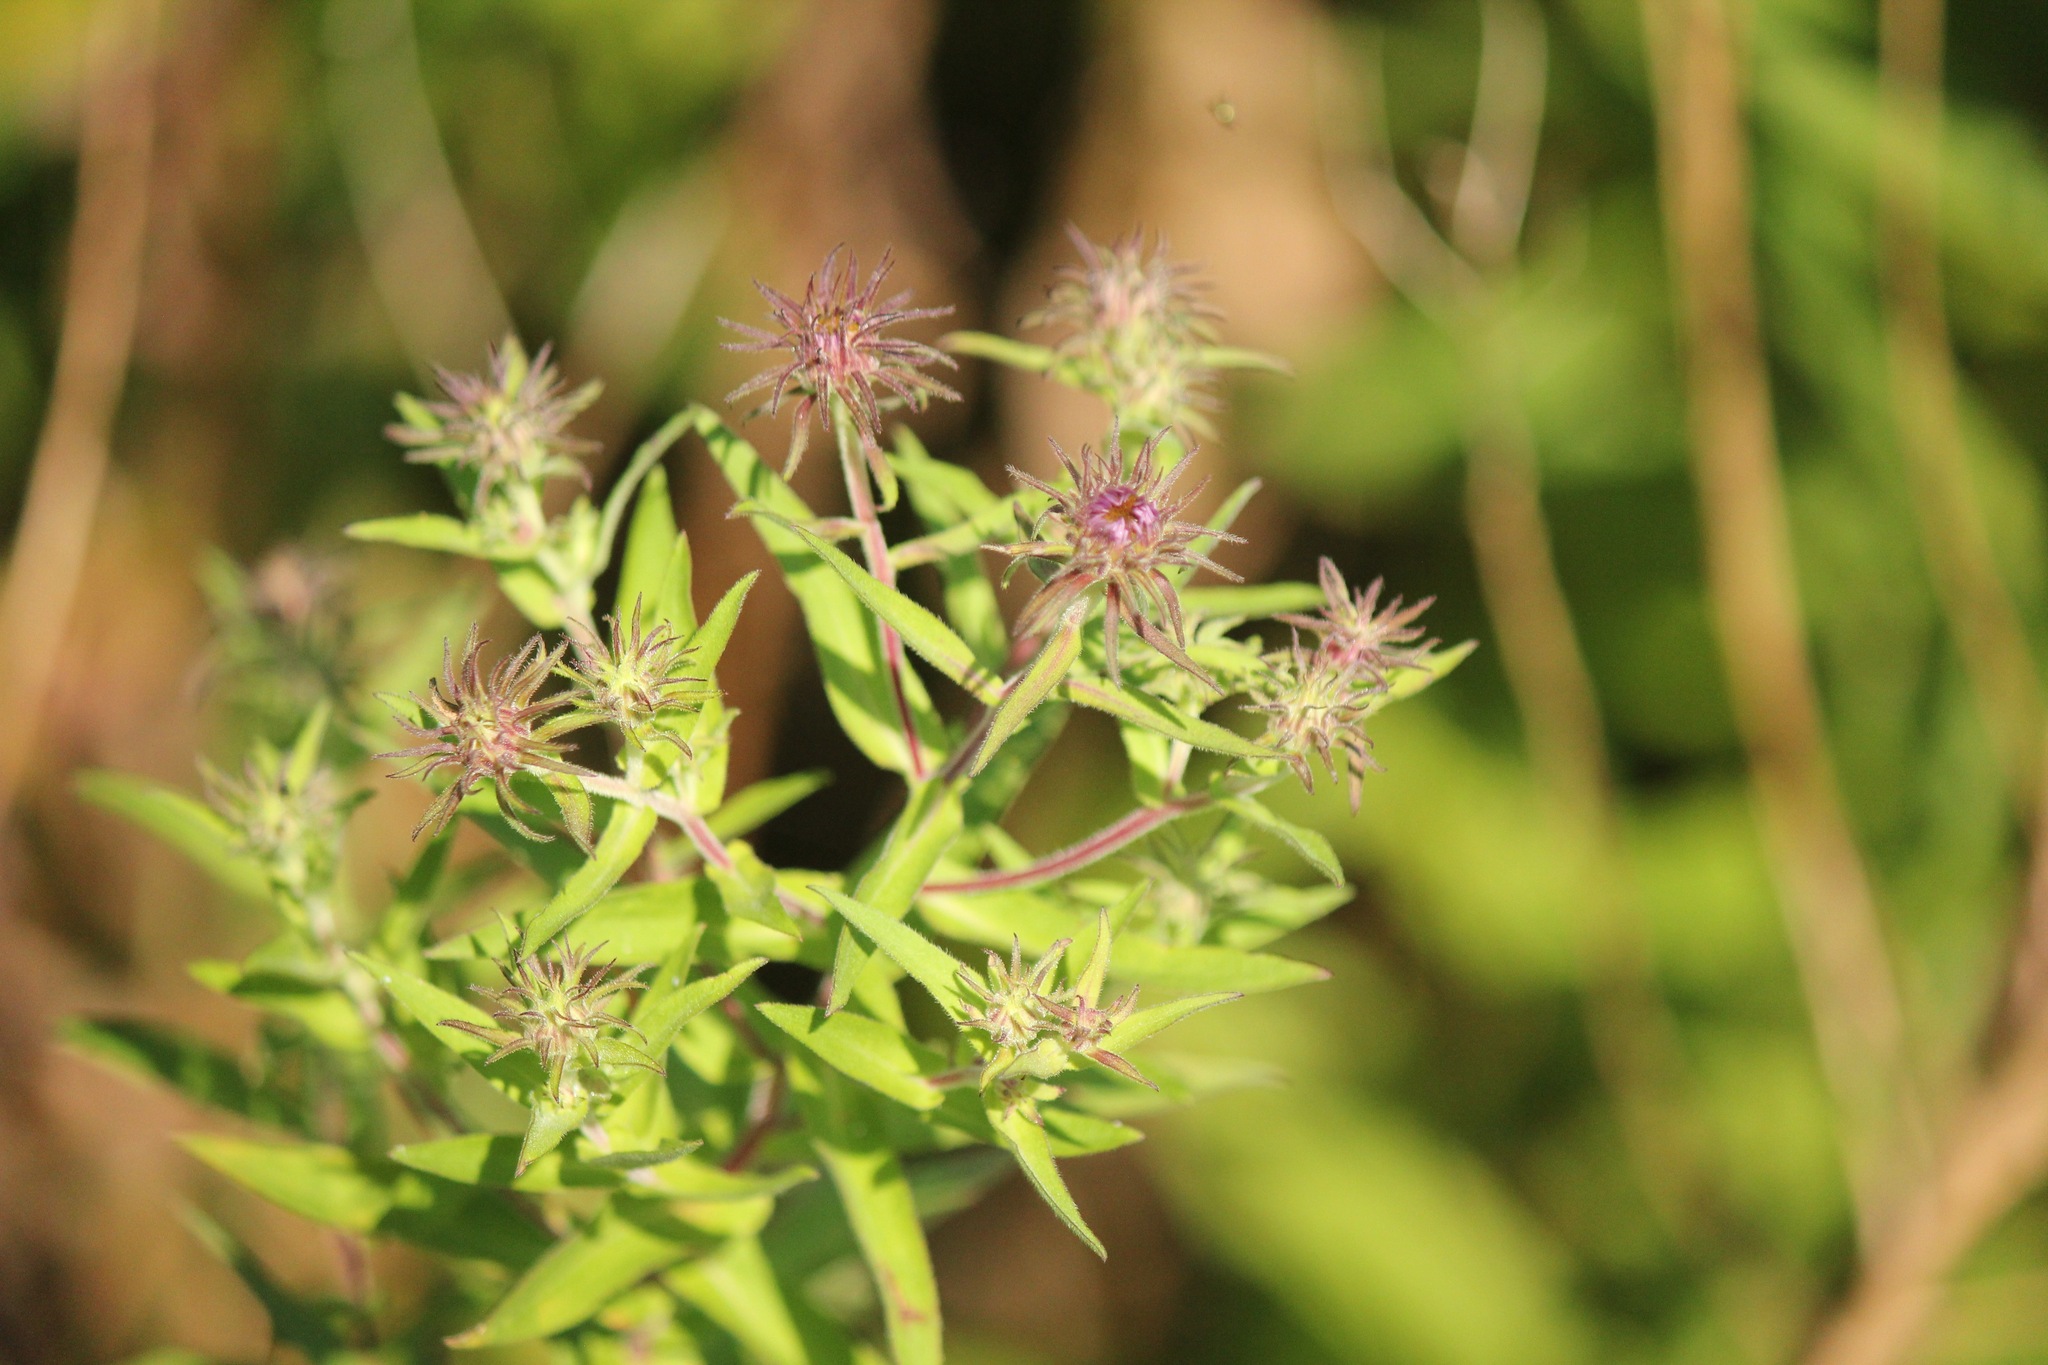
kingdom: Plantae
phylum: Tracheophyta
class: Magnoliopsida
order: Asterales
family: Asteraceae
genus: Symphyotrichum
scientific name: Symphyotrichum novae-angliae
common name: Michaelmas daisy
